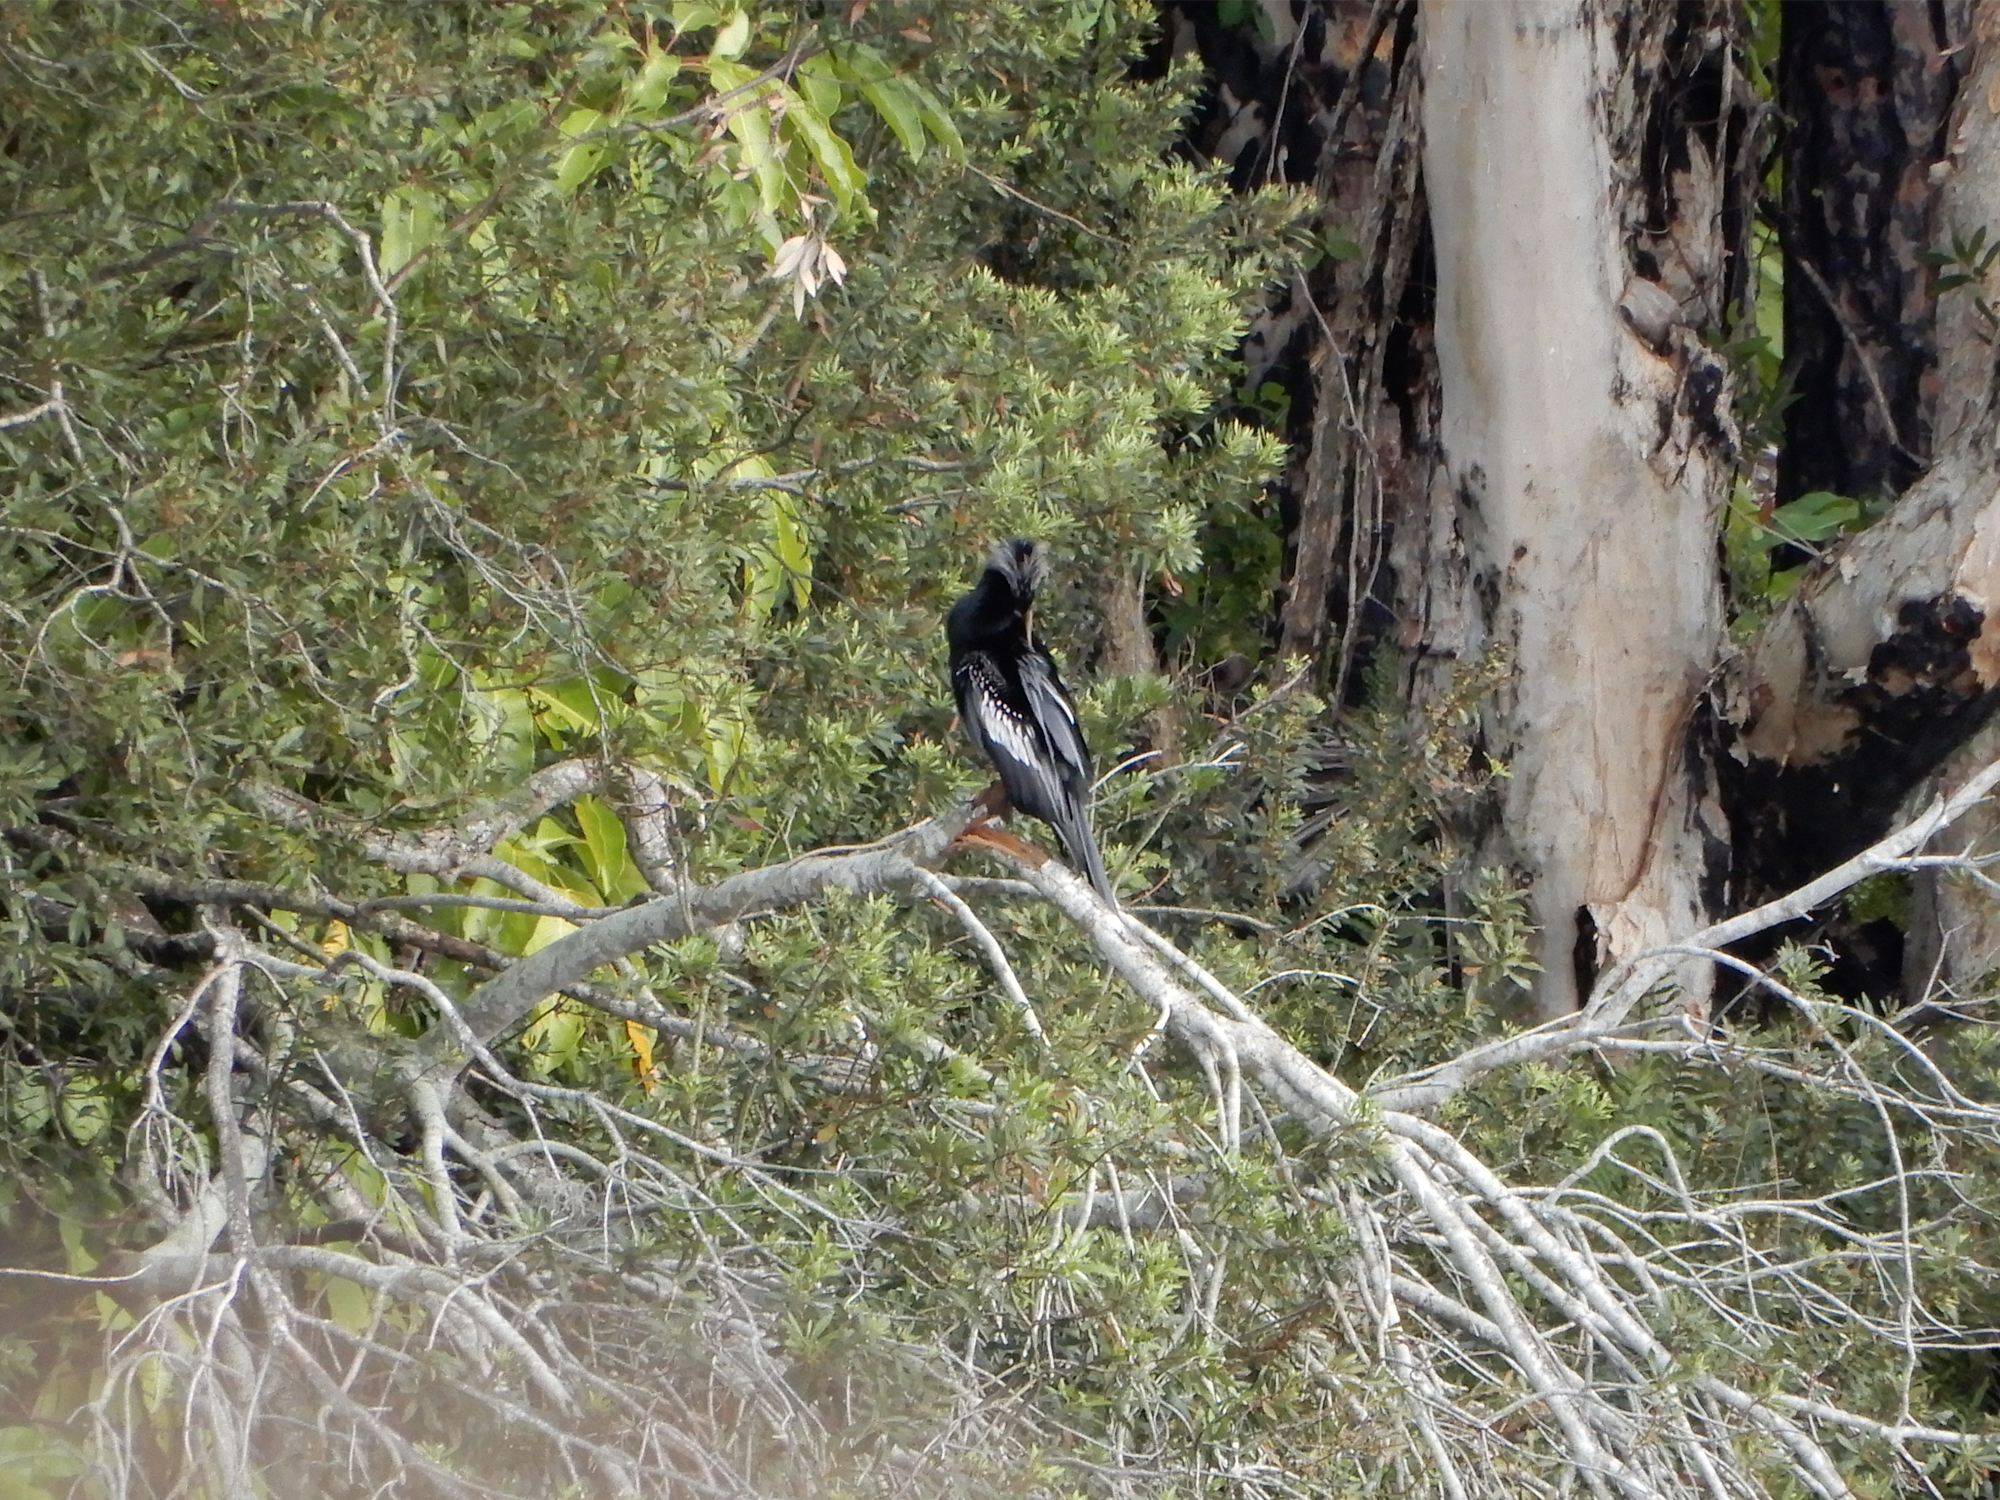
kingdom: Animalia
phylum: Chordata
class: Aves
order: Suliformes
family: Anhingidae
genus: Anhinga
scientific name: Anhinga anhinga
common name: Anhinga
